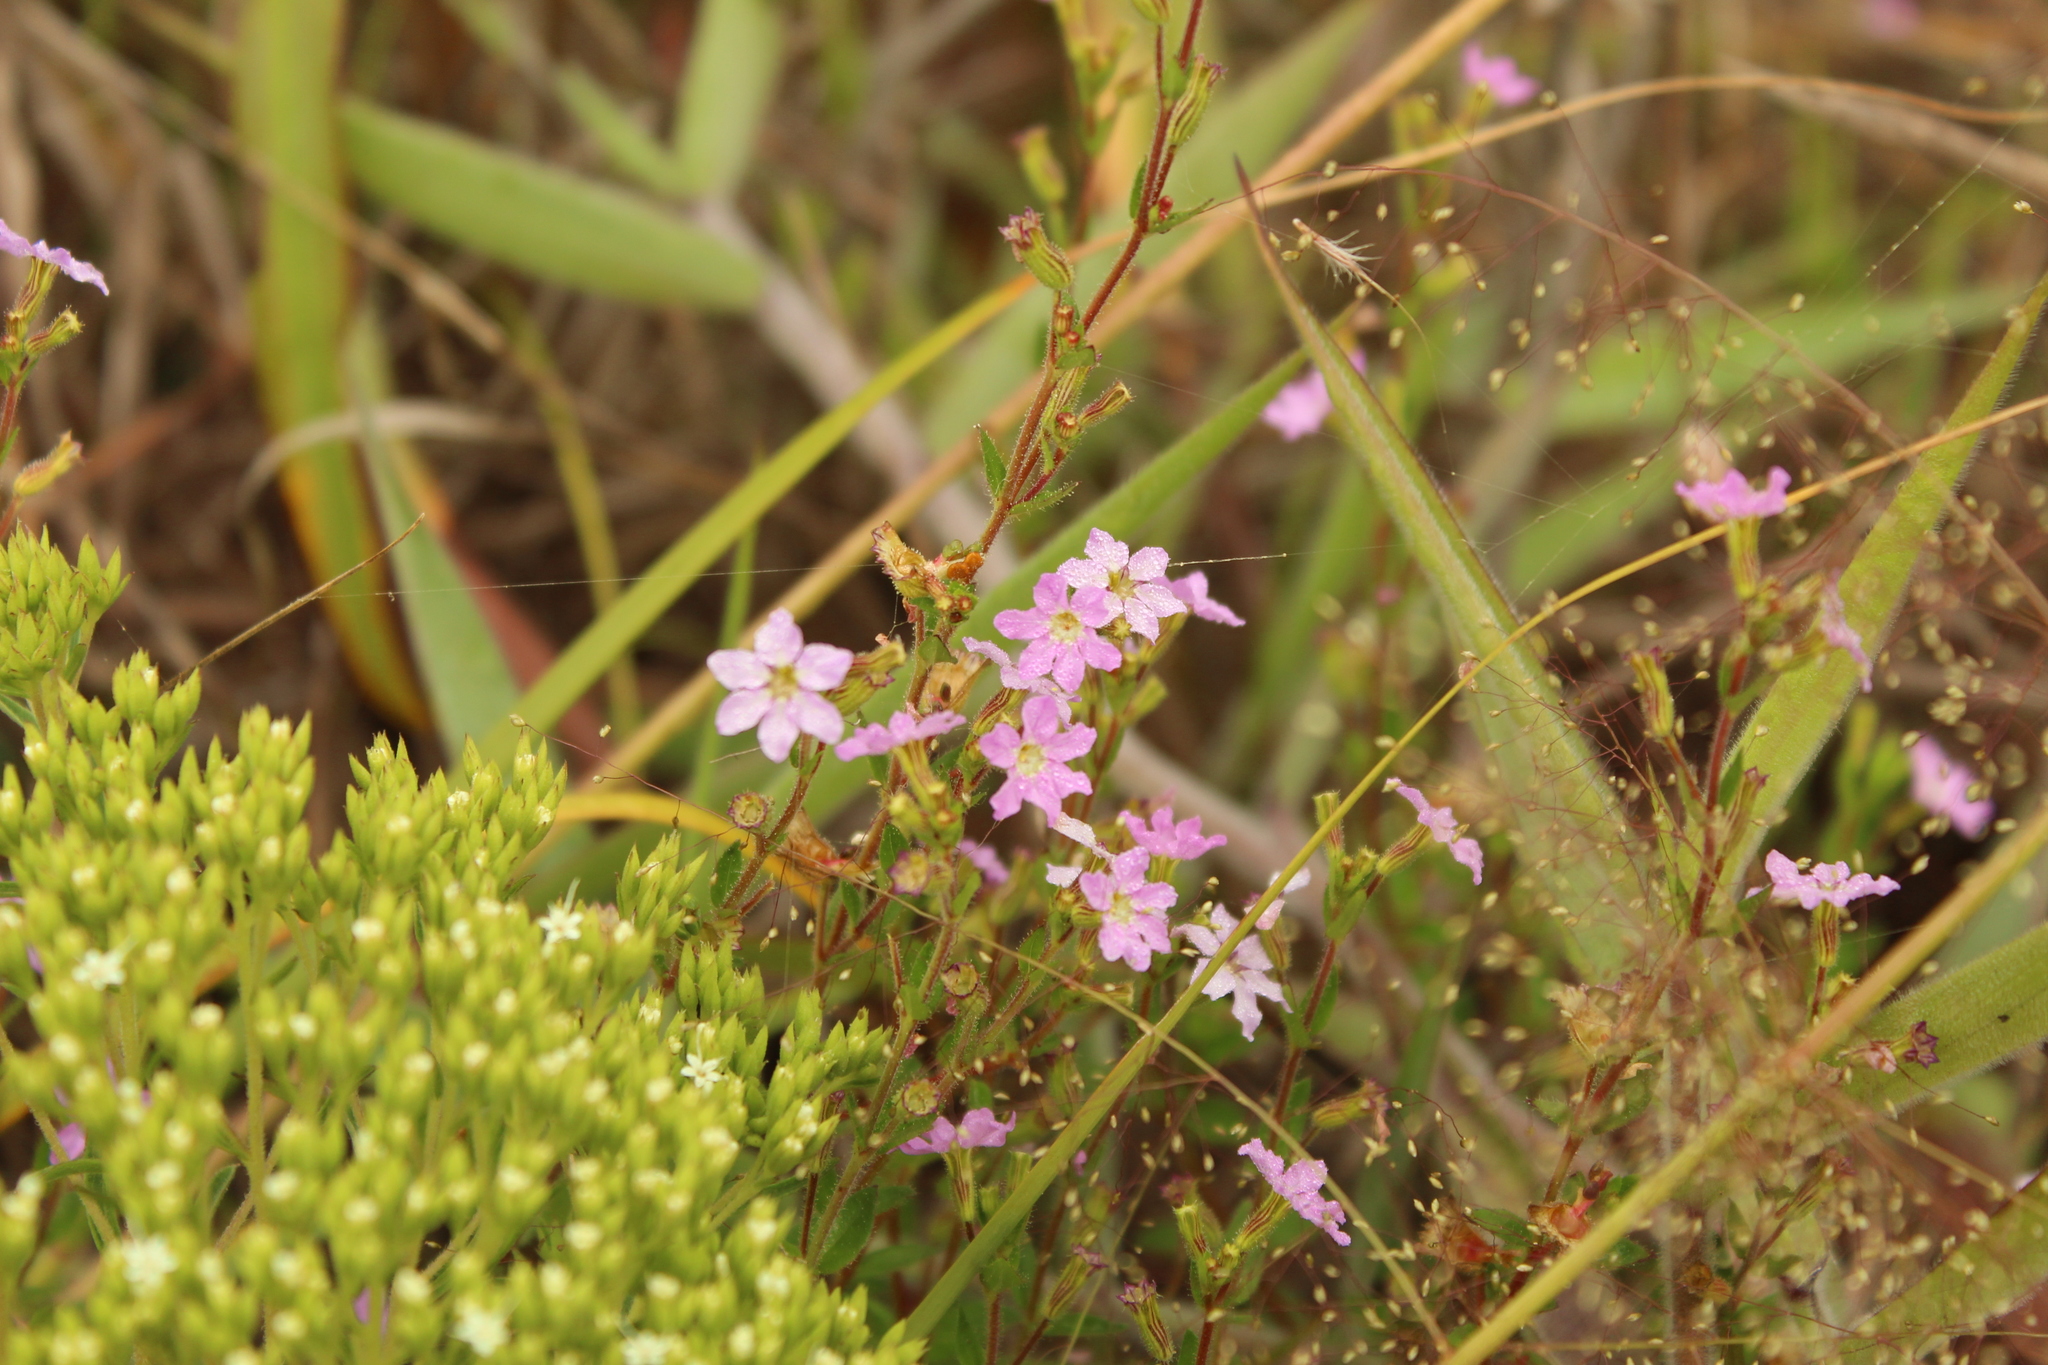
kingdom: Plantae
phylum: Tracheophyta
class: Magnoliopsida
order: Myrtales
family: Lythraceae
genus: Cuphea
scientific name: Cuphea ciliata
